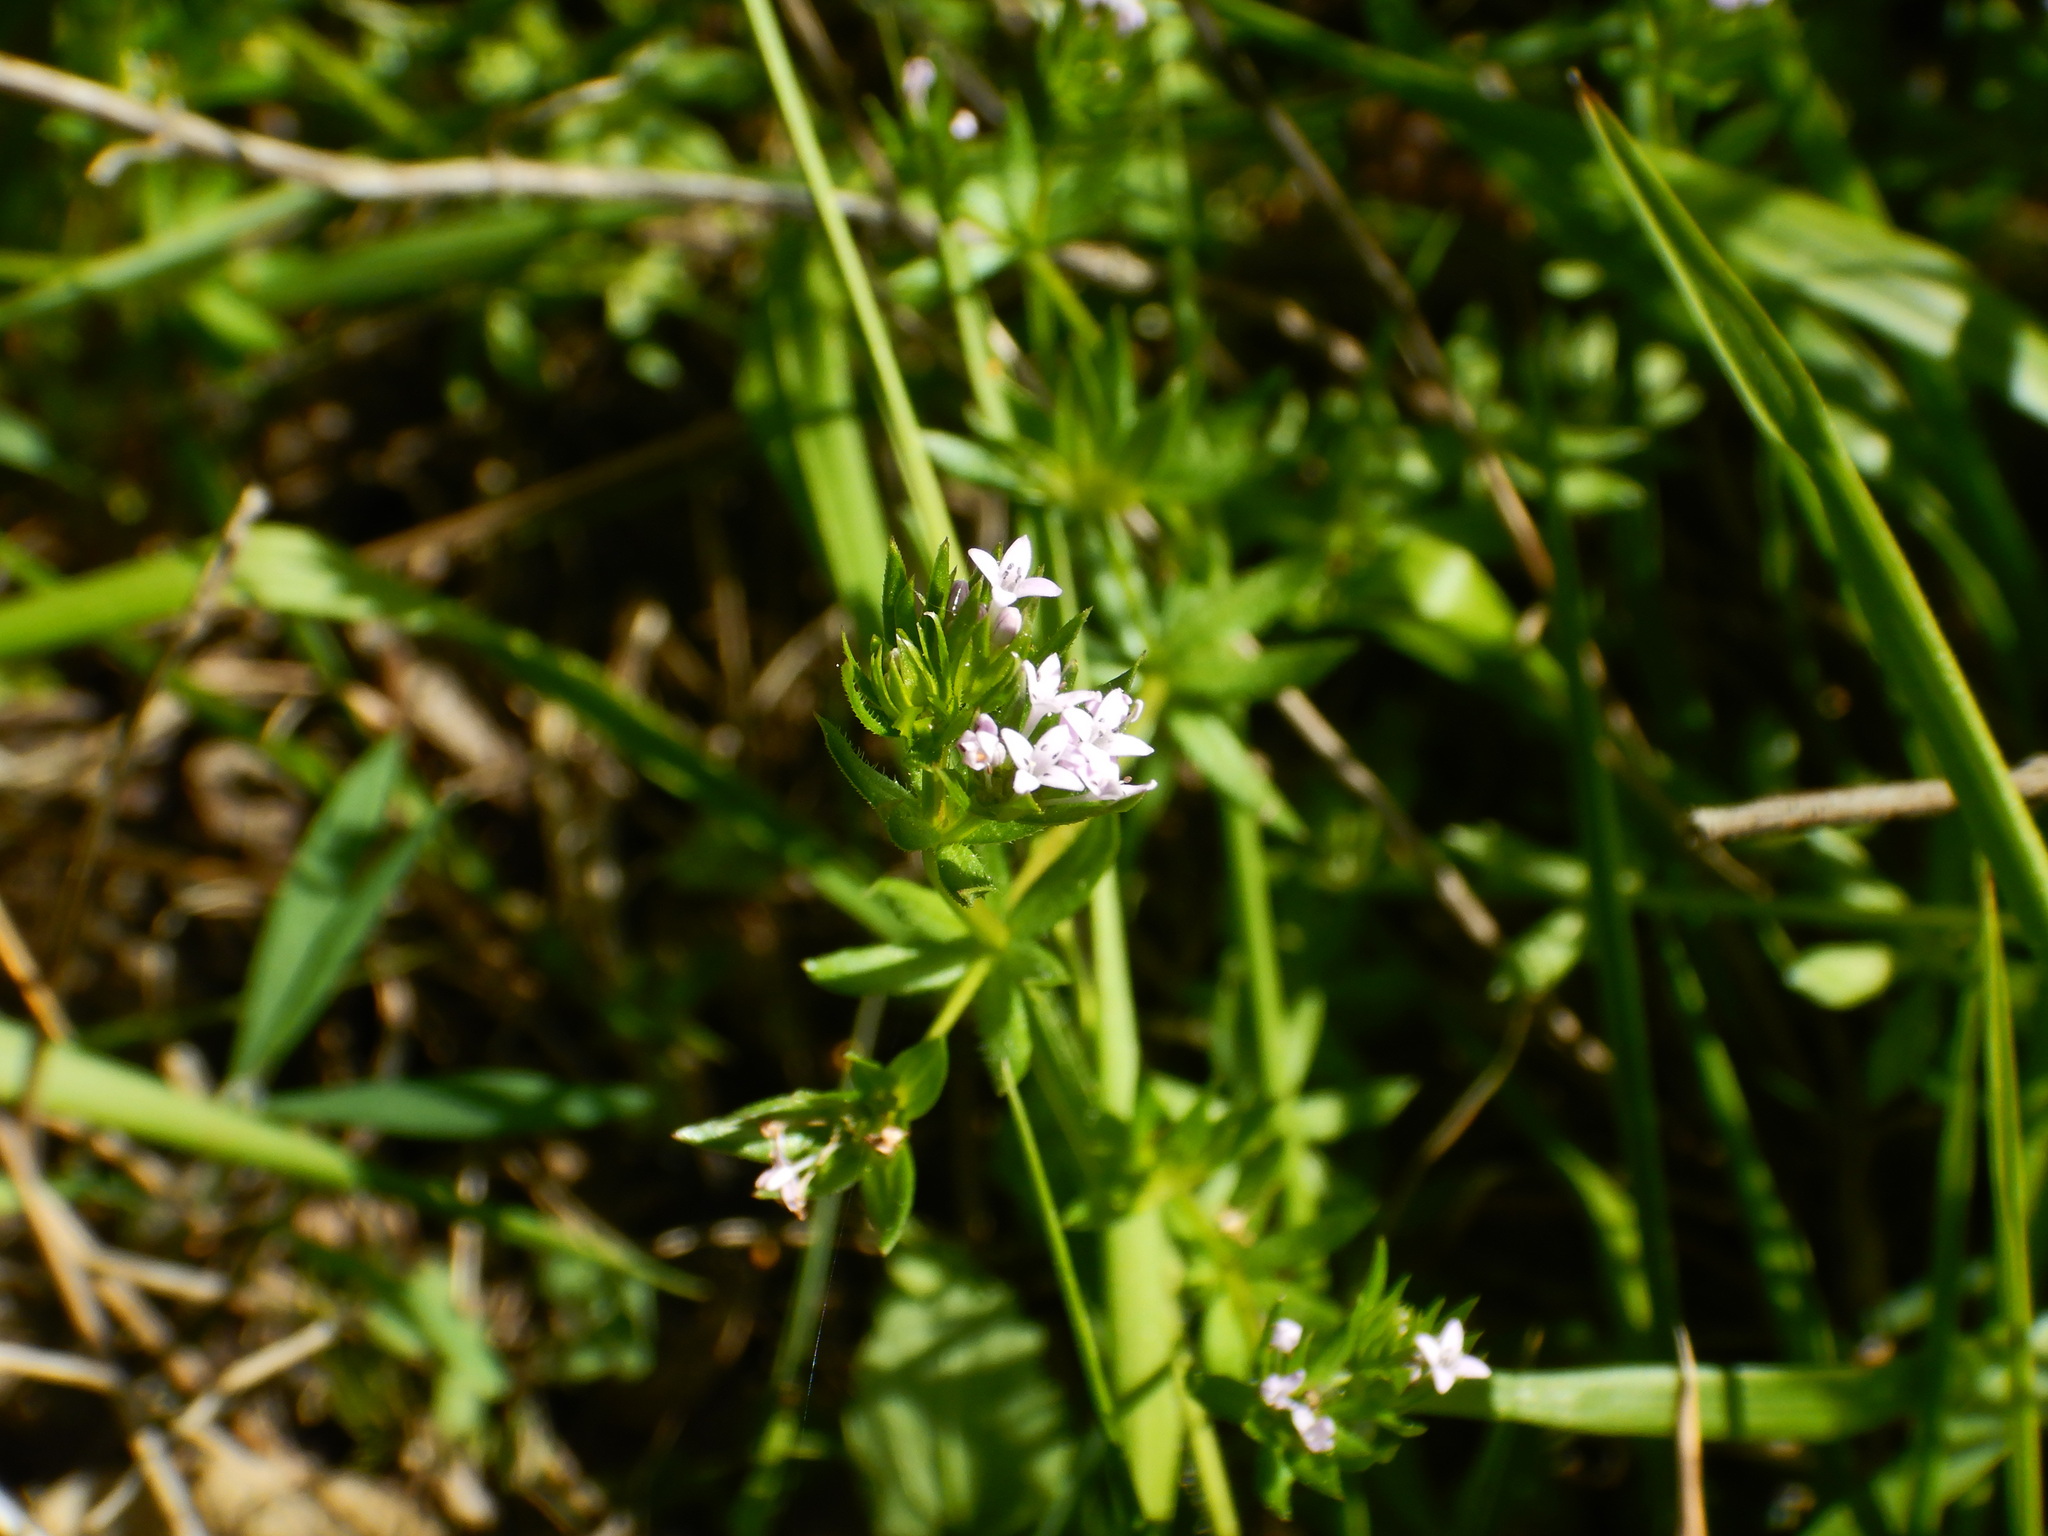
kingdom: Plantae
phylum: Tracheophyta
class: Magnoliopsida
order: Gentianales
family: Rubiaceae
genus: Sherardia
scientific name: Sherardia arvensis
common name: Field madder
